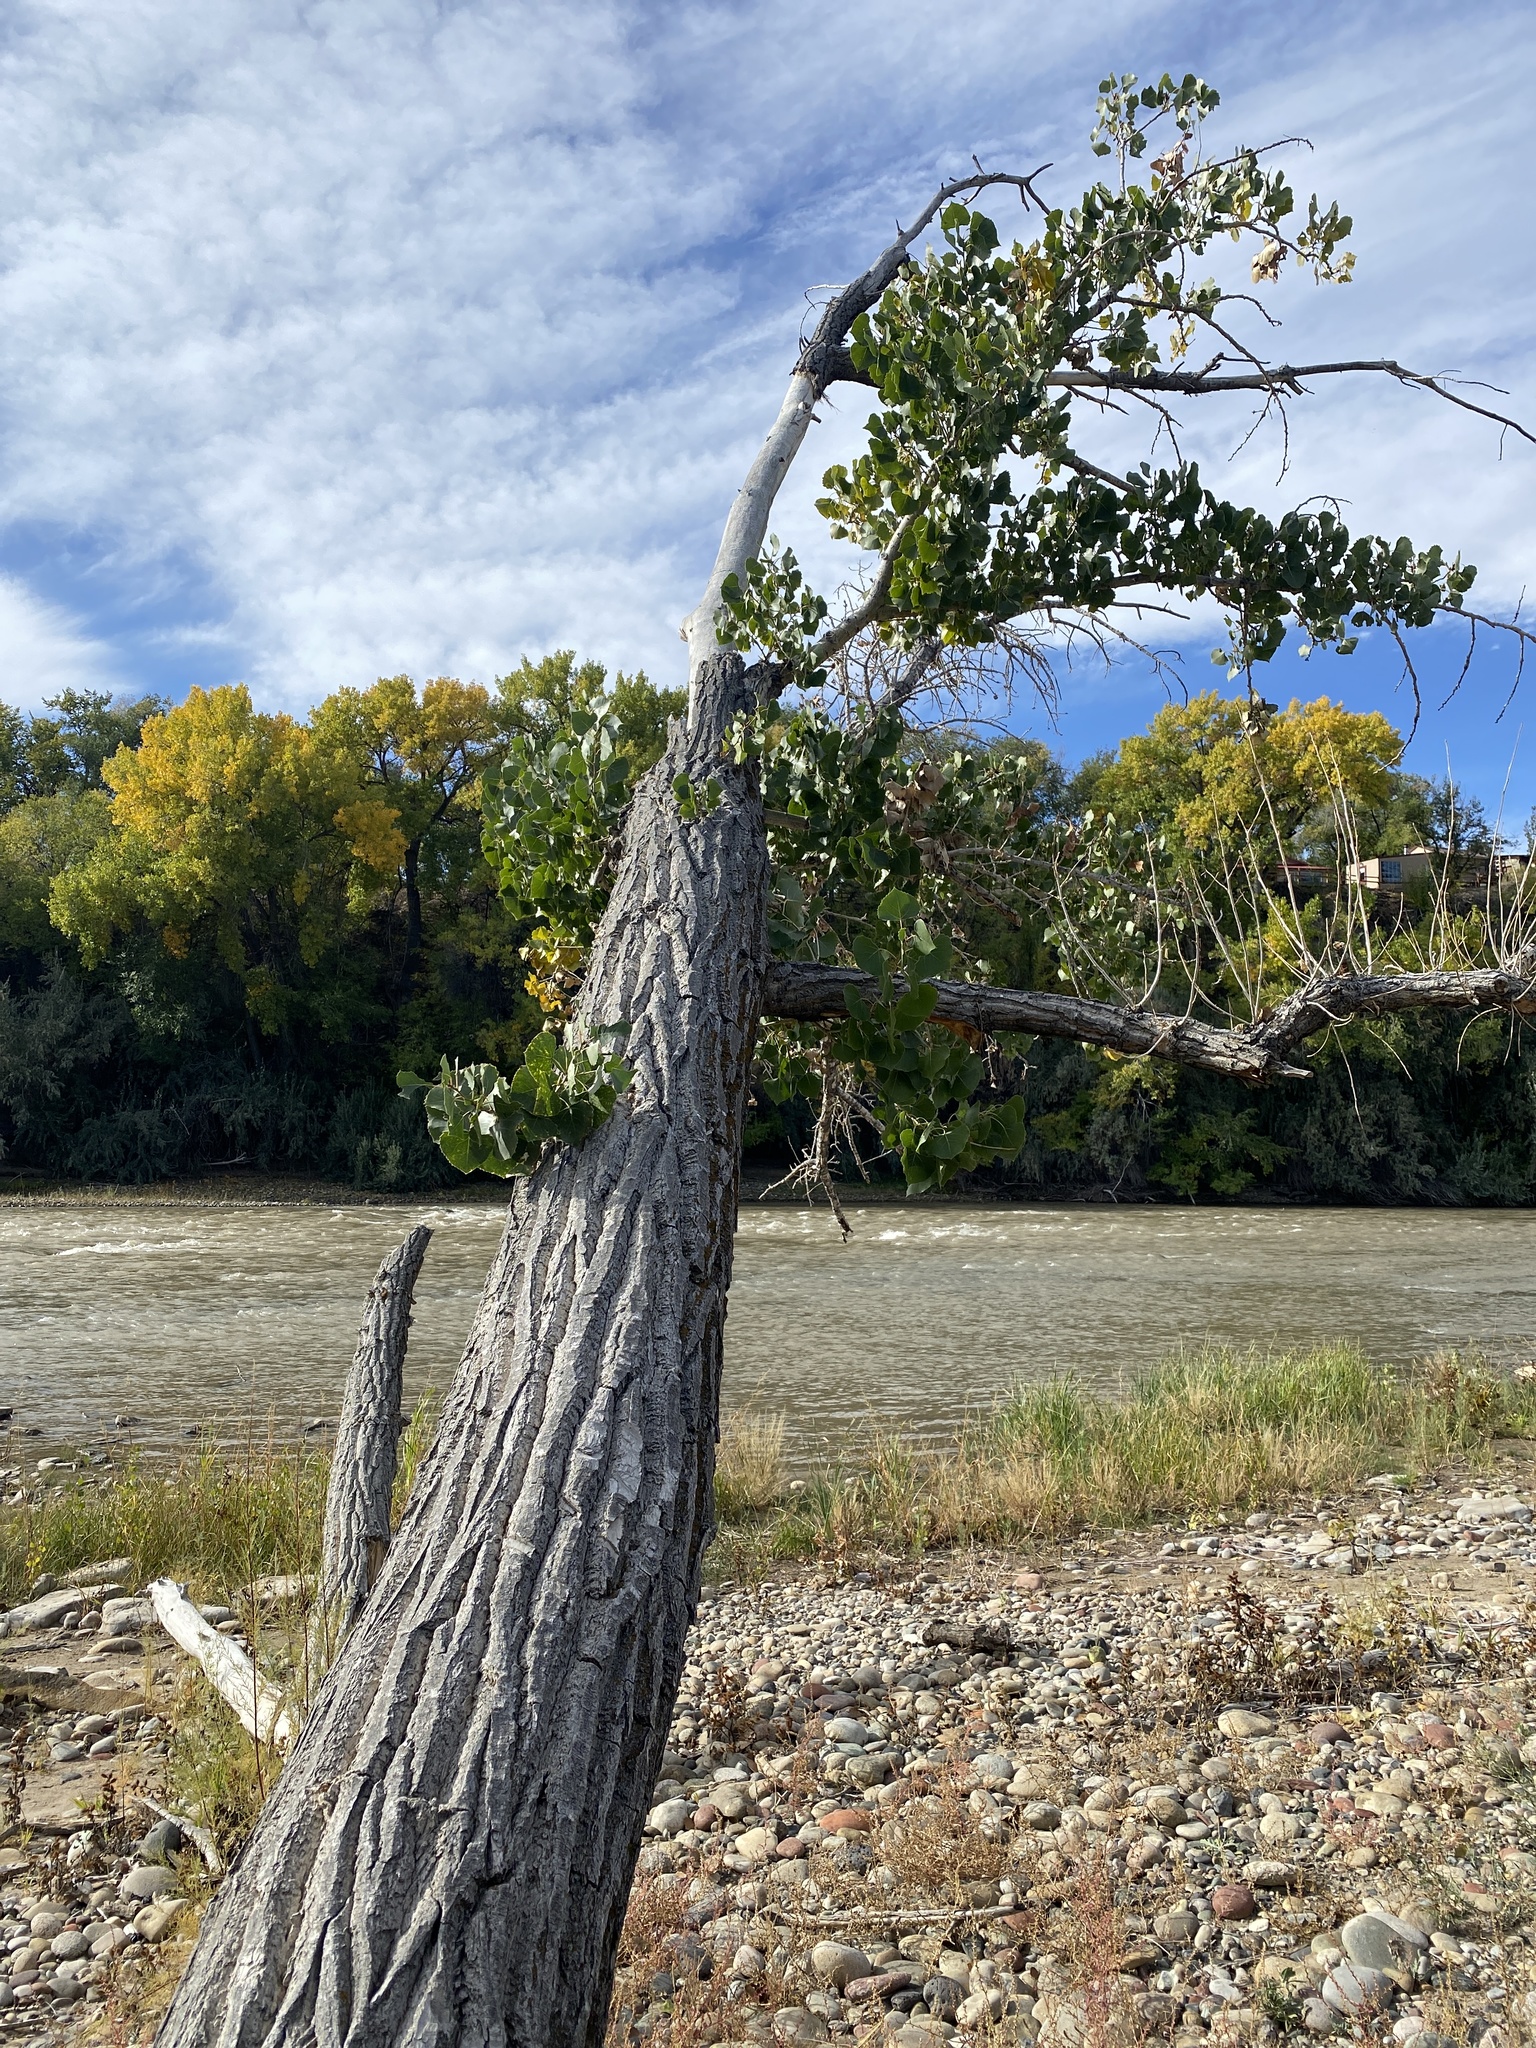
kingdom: Plantae
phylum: Tracheophyta
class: Magnoliopsida
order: Malpighiales
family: Salicaceae
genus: Populus
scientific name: Populus fremontii
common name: Fremont's cottonwood
